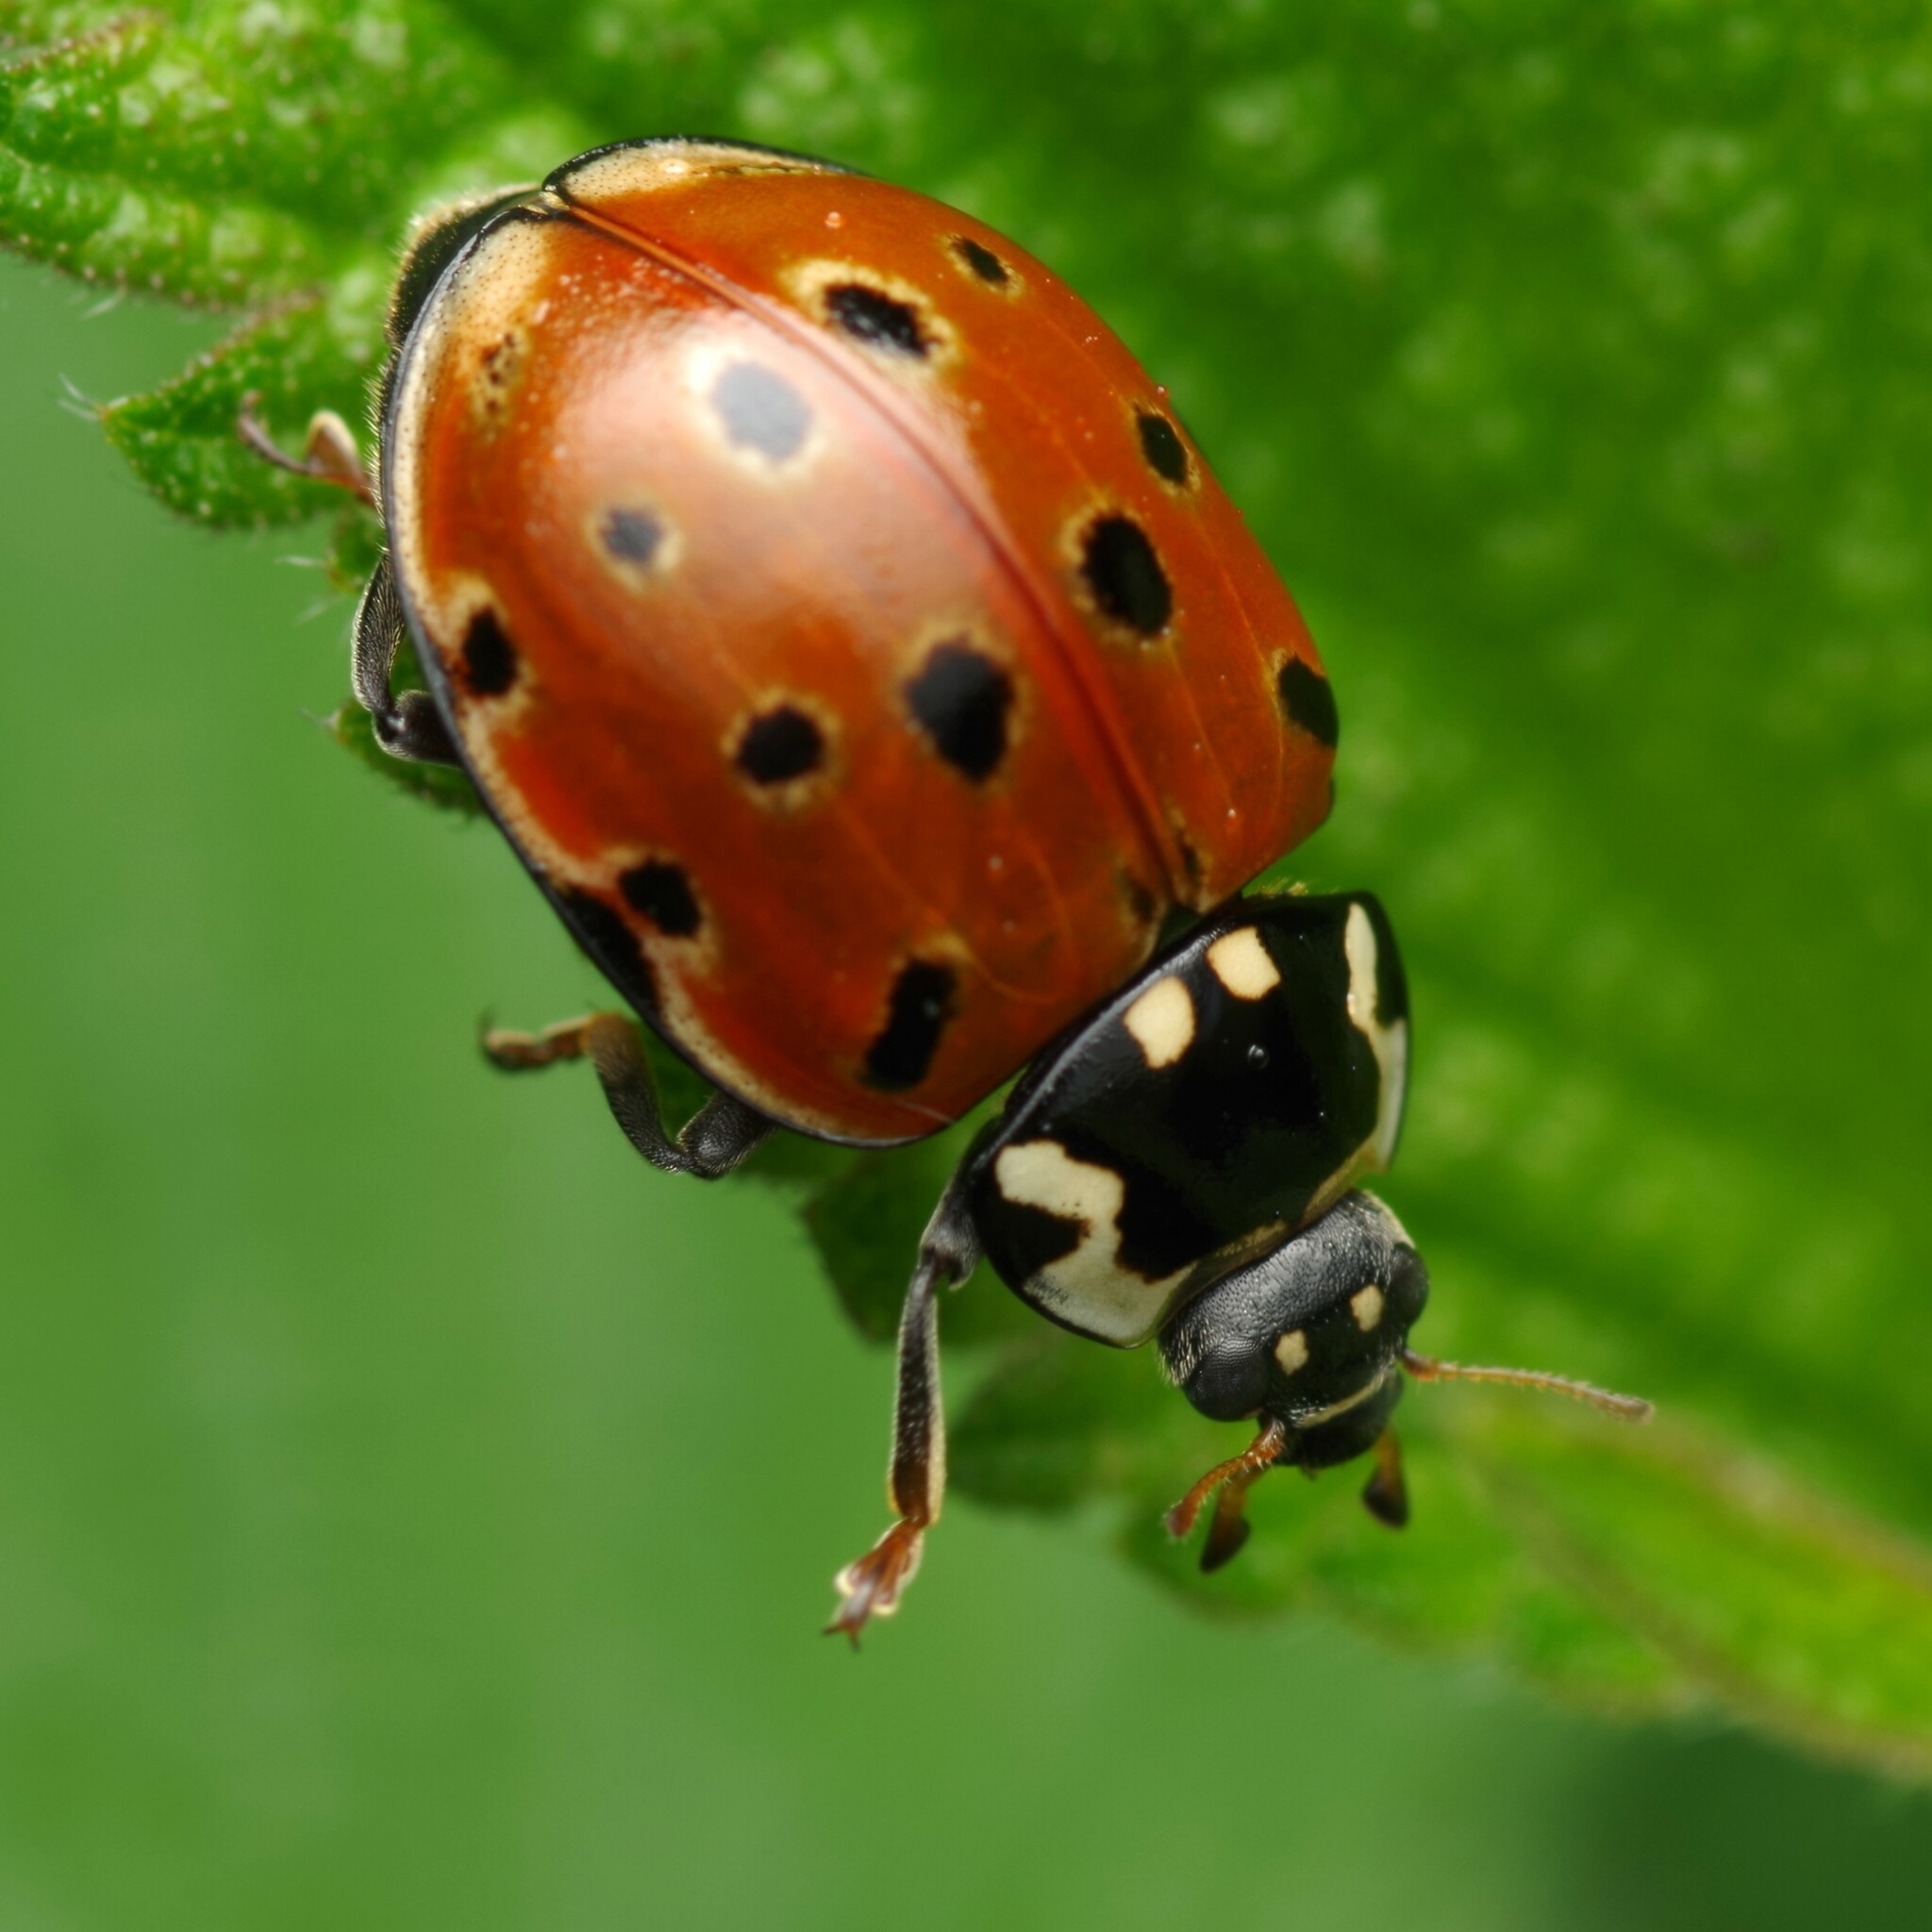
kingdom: Animalia
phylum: Arthropoda
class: Insecta
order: Coleoptera
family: Coccinellidae
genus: Anatis
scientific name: Anatis ocellata
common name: Eyed ladybird
